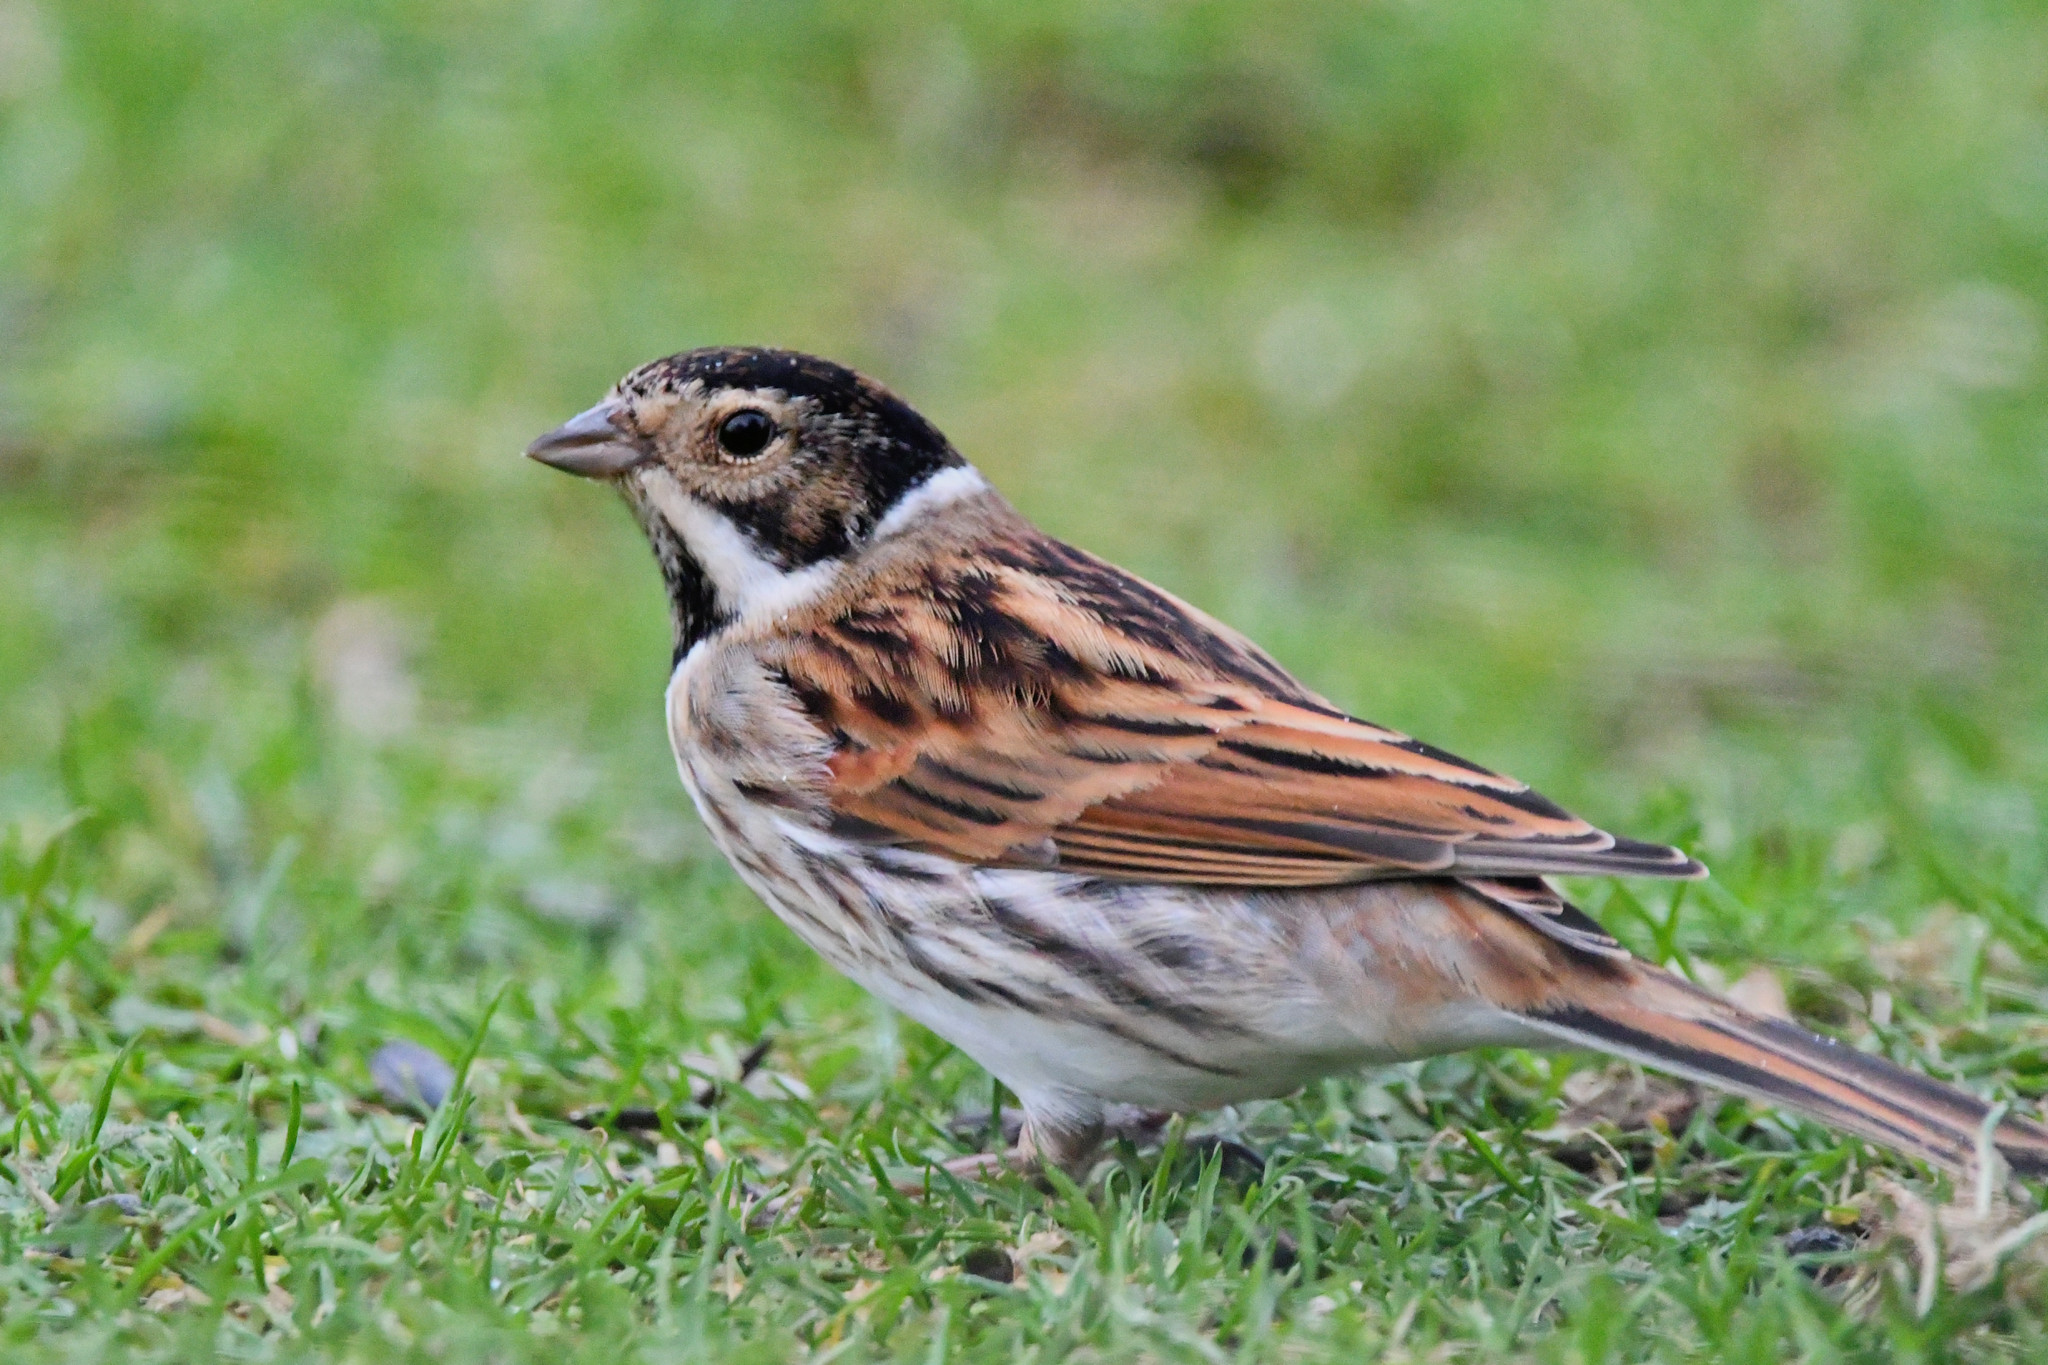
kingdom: Animalia
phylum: Chordata
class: Aves
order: Passeriformes
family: Emberizidae
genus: Emberiza
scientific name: Emberiza schoeniclus
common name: Reed bunting
